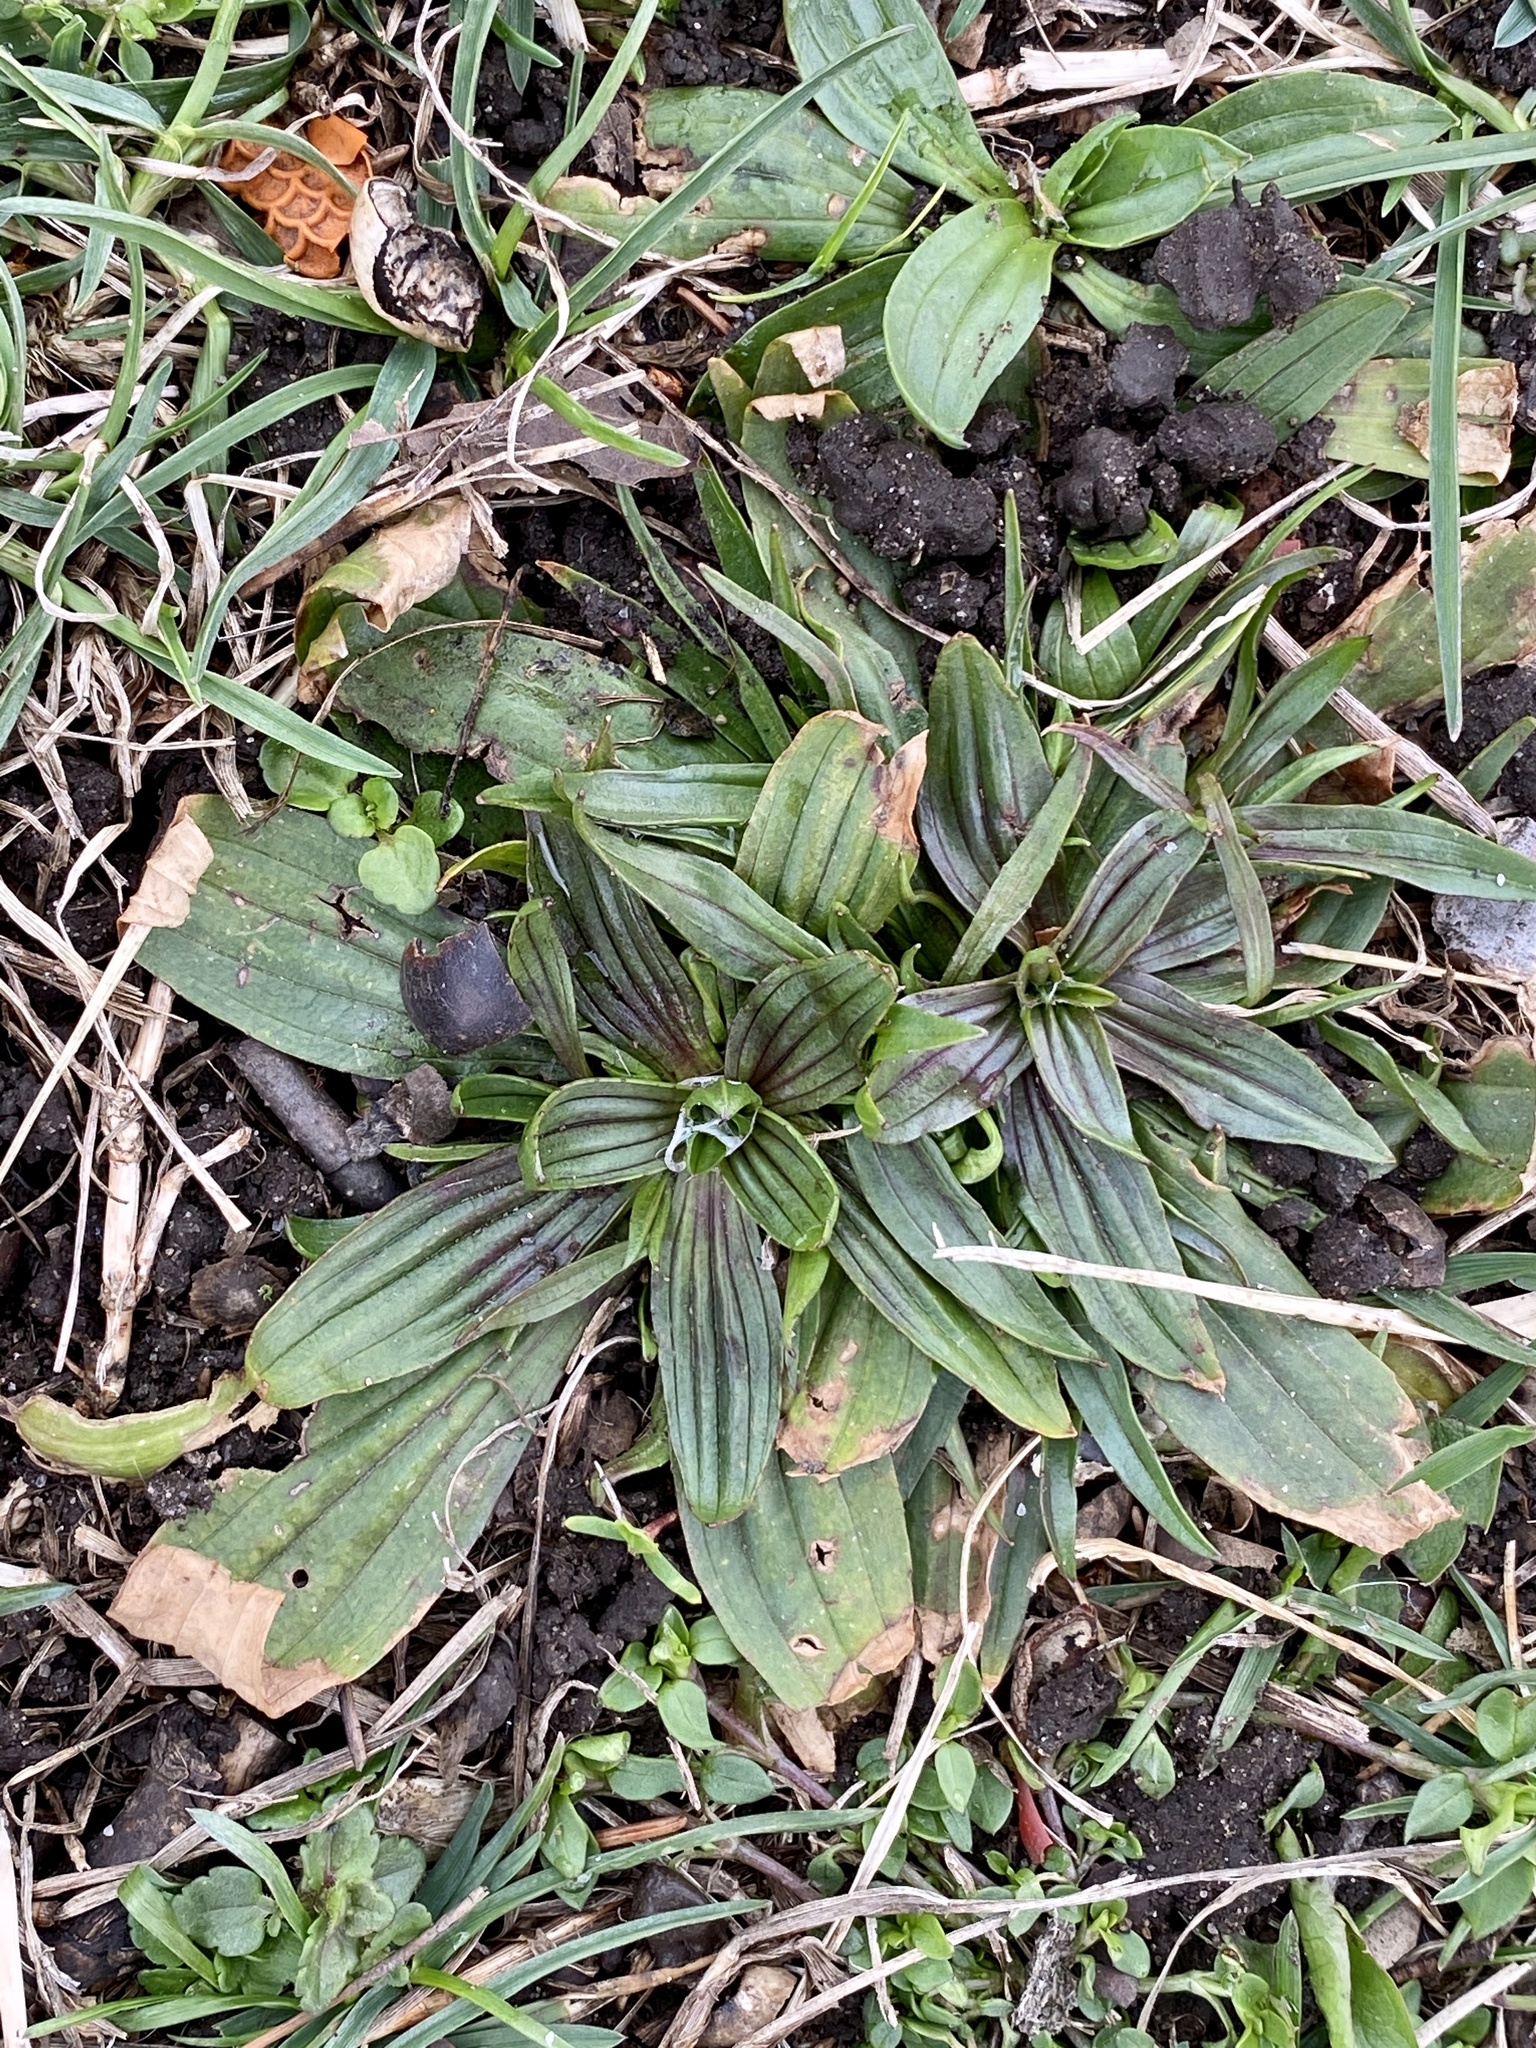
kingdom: Plantae
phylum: Tracheophyta
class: Magnoliopsida
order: Lamiales
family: Plantaginaceae
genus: Plantago
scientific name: Plantago lanceolata
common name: Ribwort plantain
